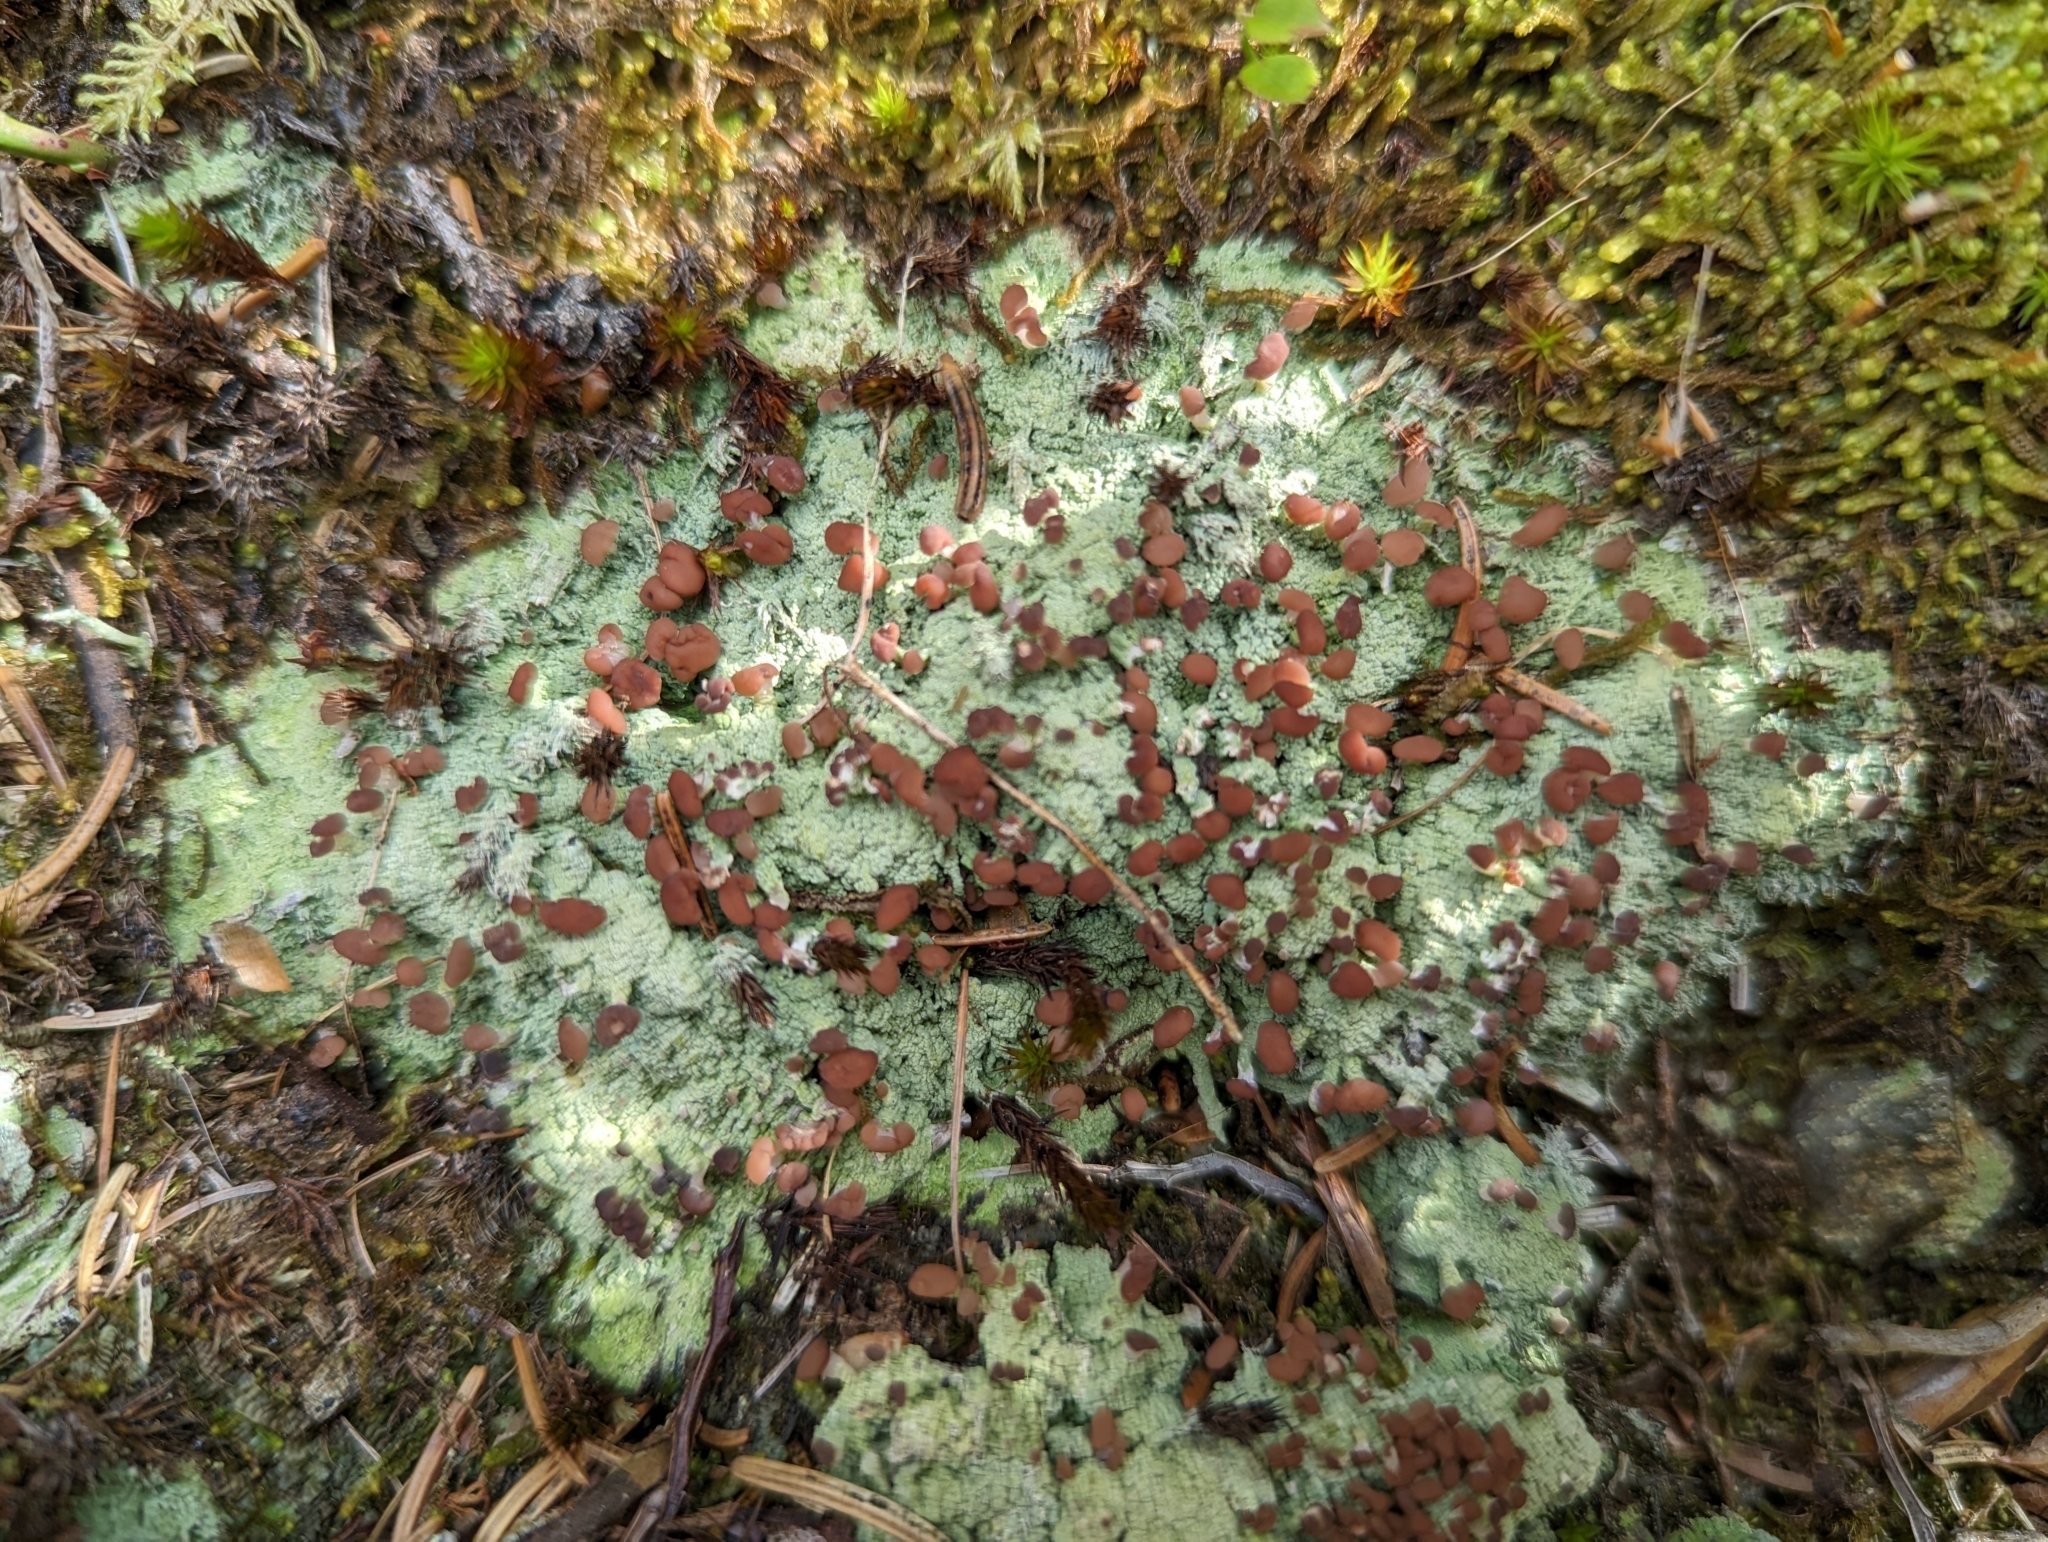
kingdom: Fungi
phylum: Ascomycota
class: Lecanoromycetes
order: Baeomycetales
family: Baeomycetaceae
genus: Baeomyces
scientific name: Baeomyces rufus
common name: Brown beret lichen
